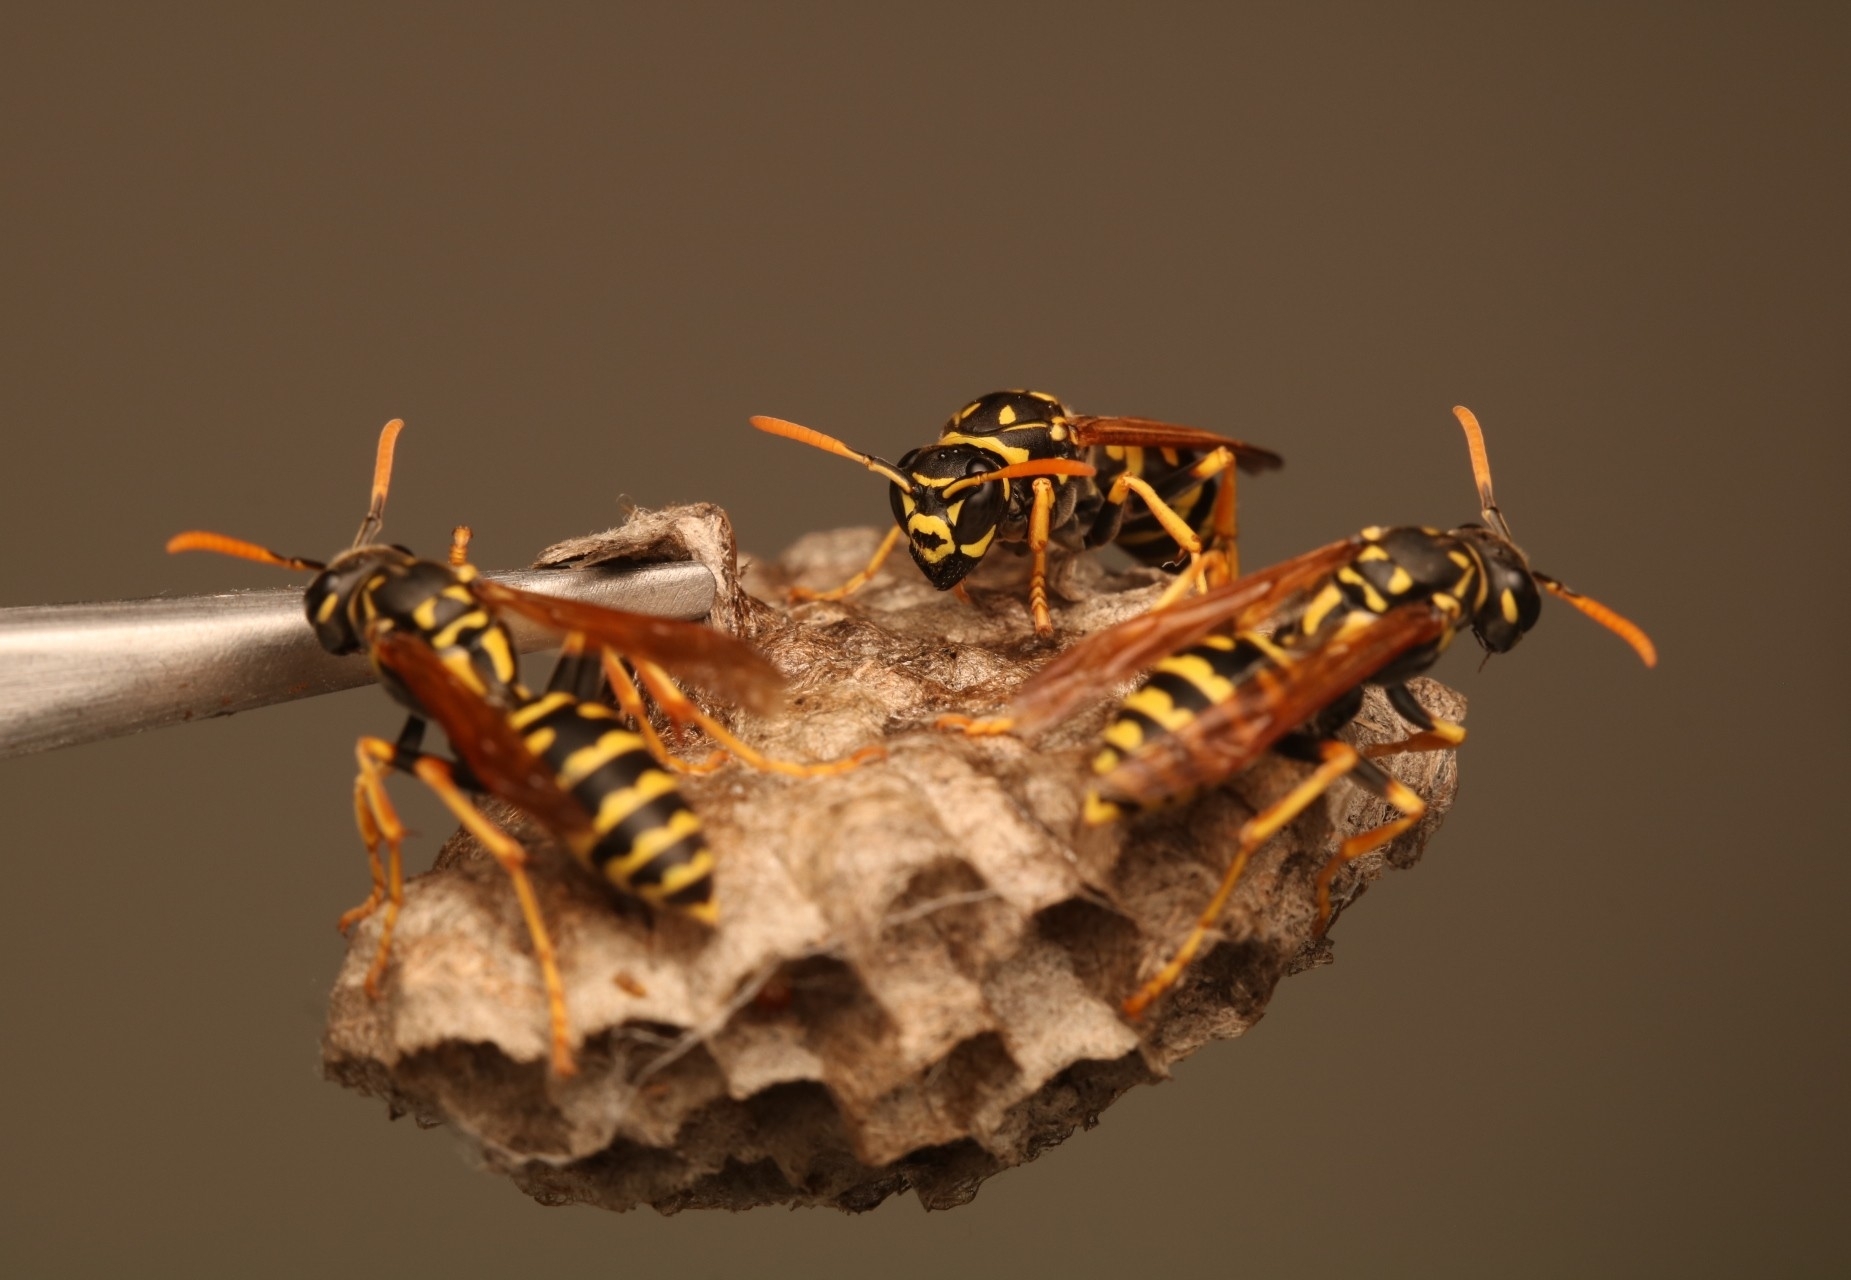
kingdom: Animalia
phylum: Arthropoda
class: Insecta
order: Hymenoptera
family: Eumenidae
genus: Polistes
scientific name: Polistes dominula
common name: Paper wasp
